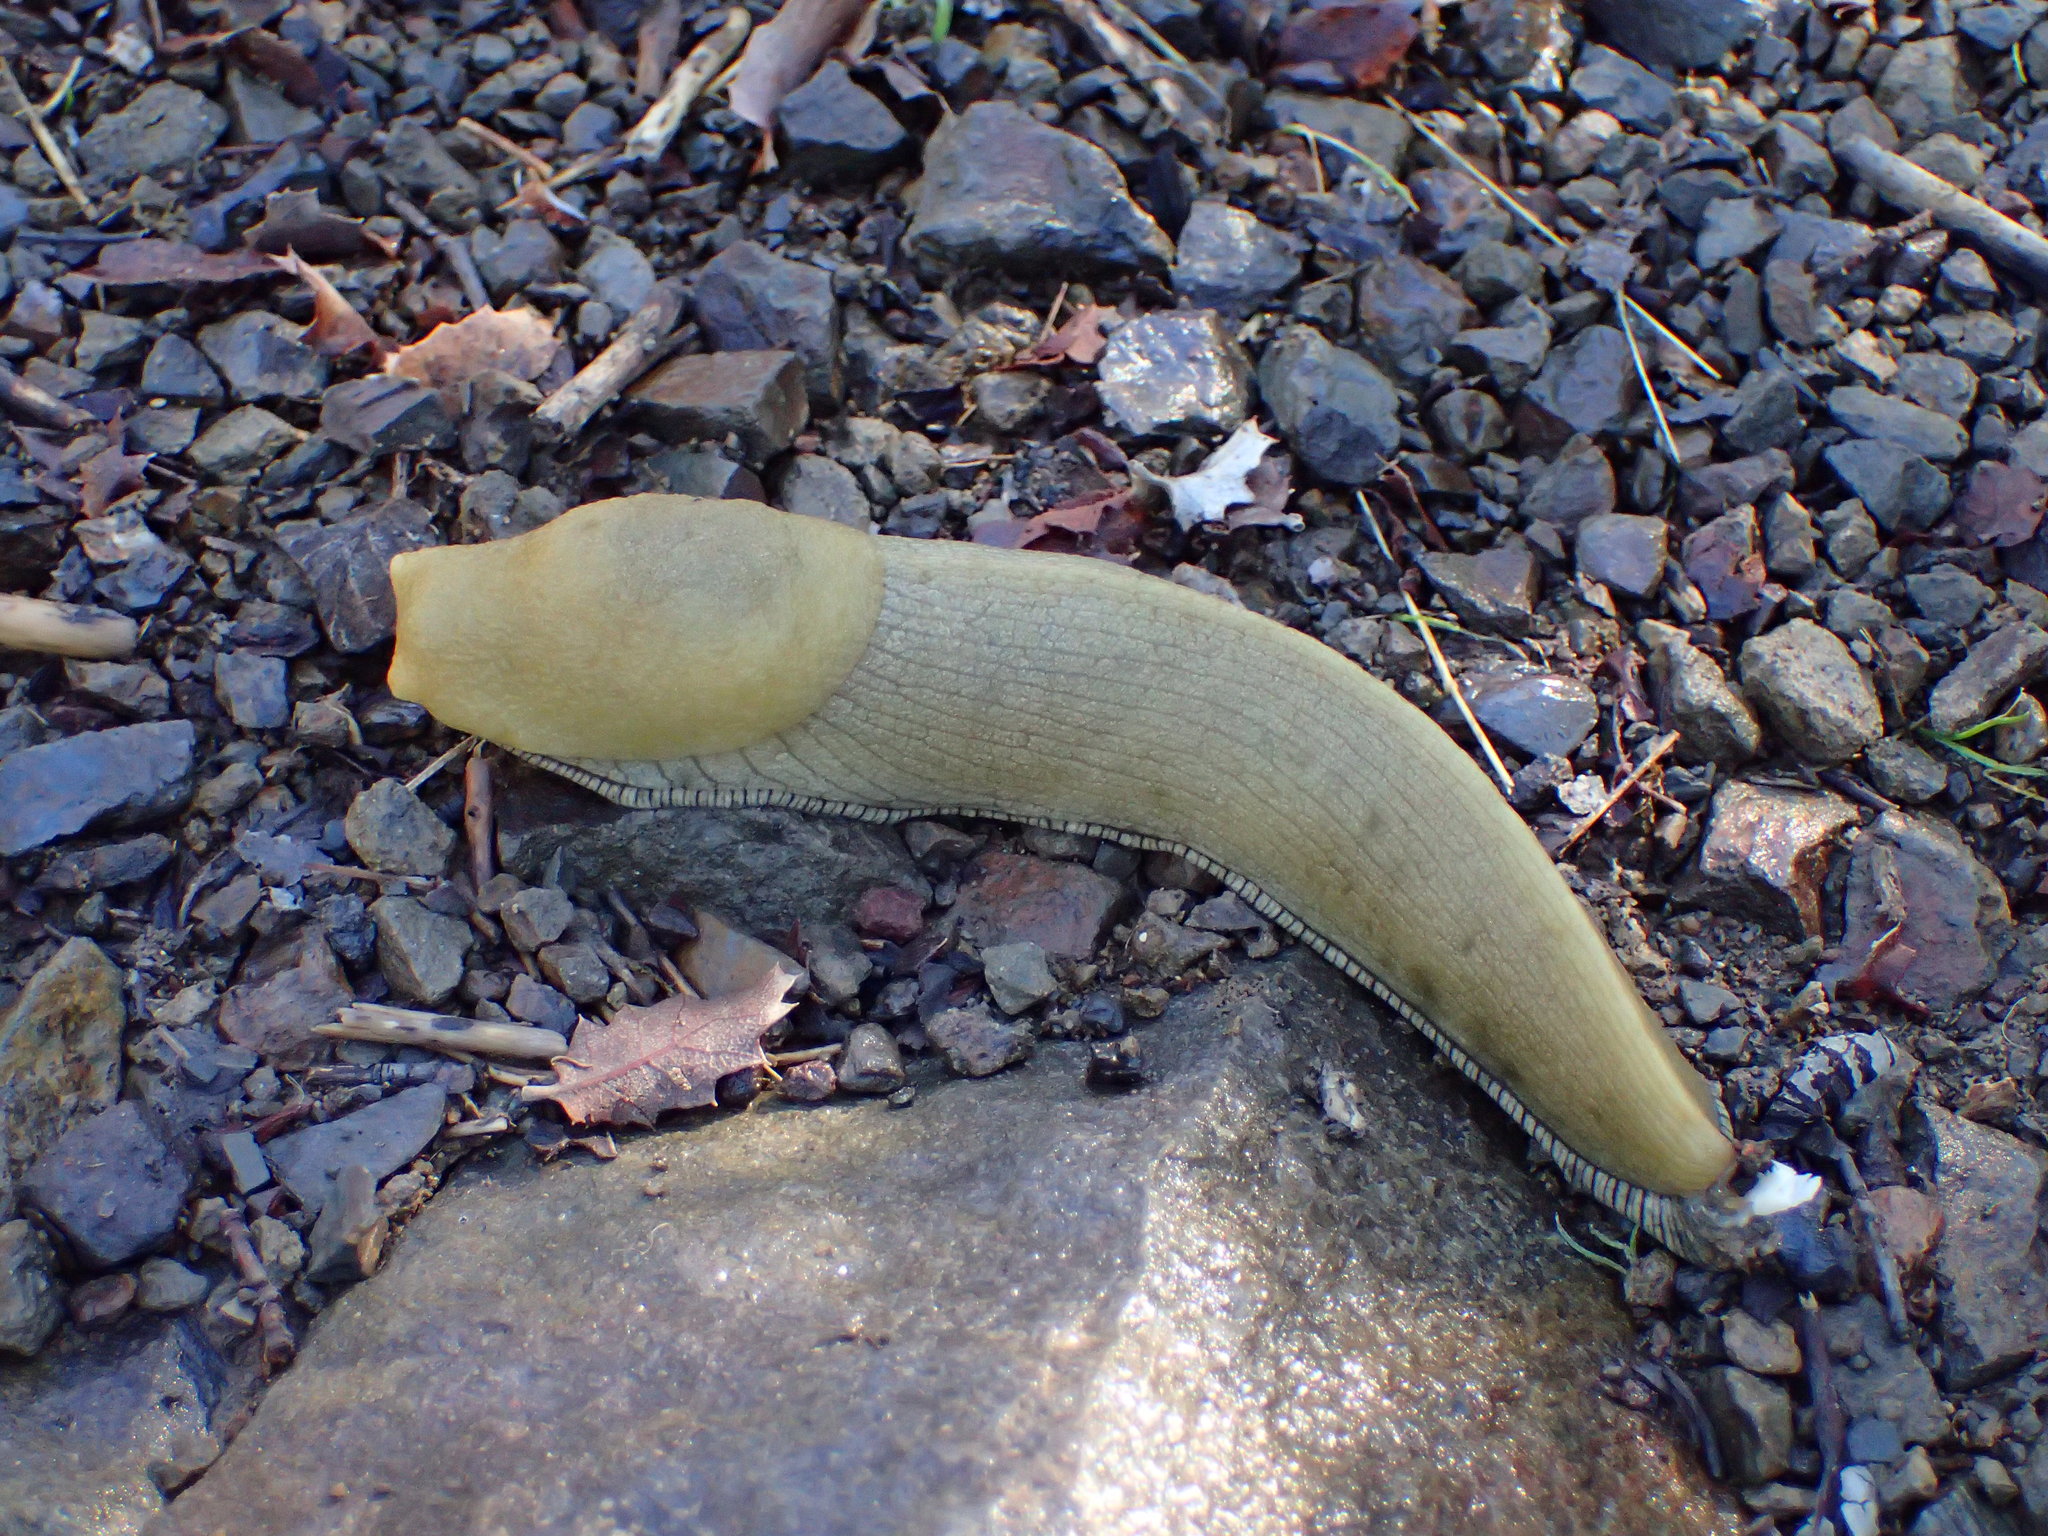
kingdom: Animalia
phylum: Mollusca
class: Gastropoda
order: Stylommatophora
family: Ariolimacidae
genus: Ariolimax
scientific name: Ariolimax stramineus
